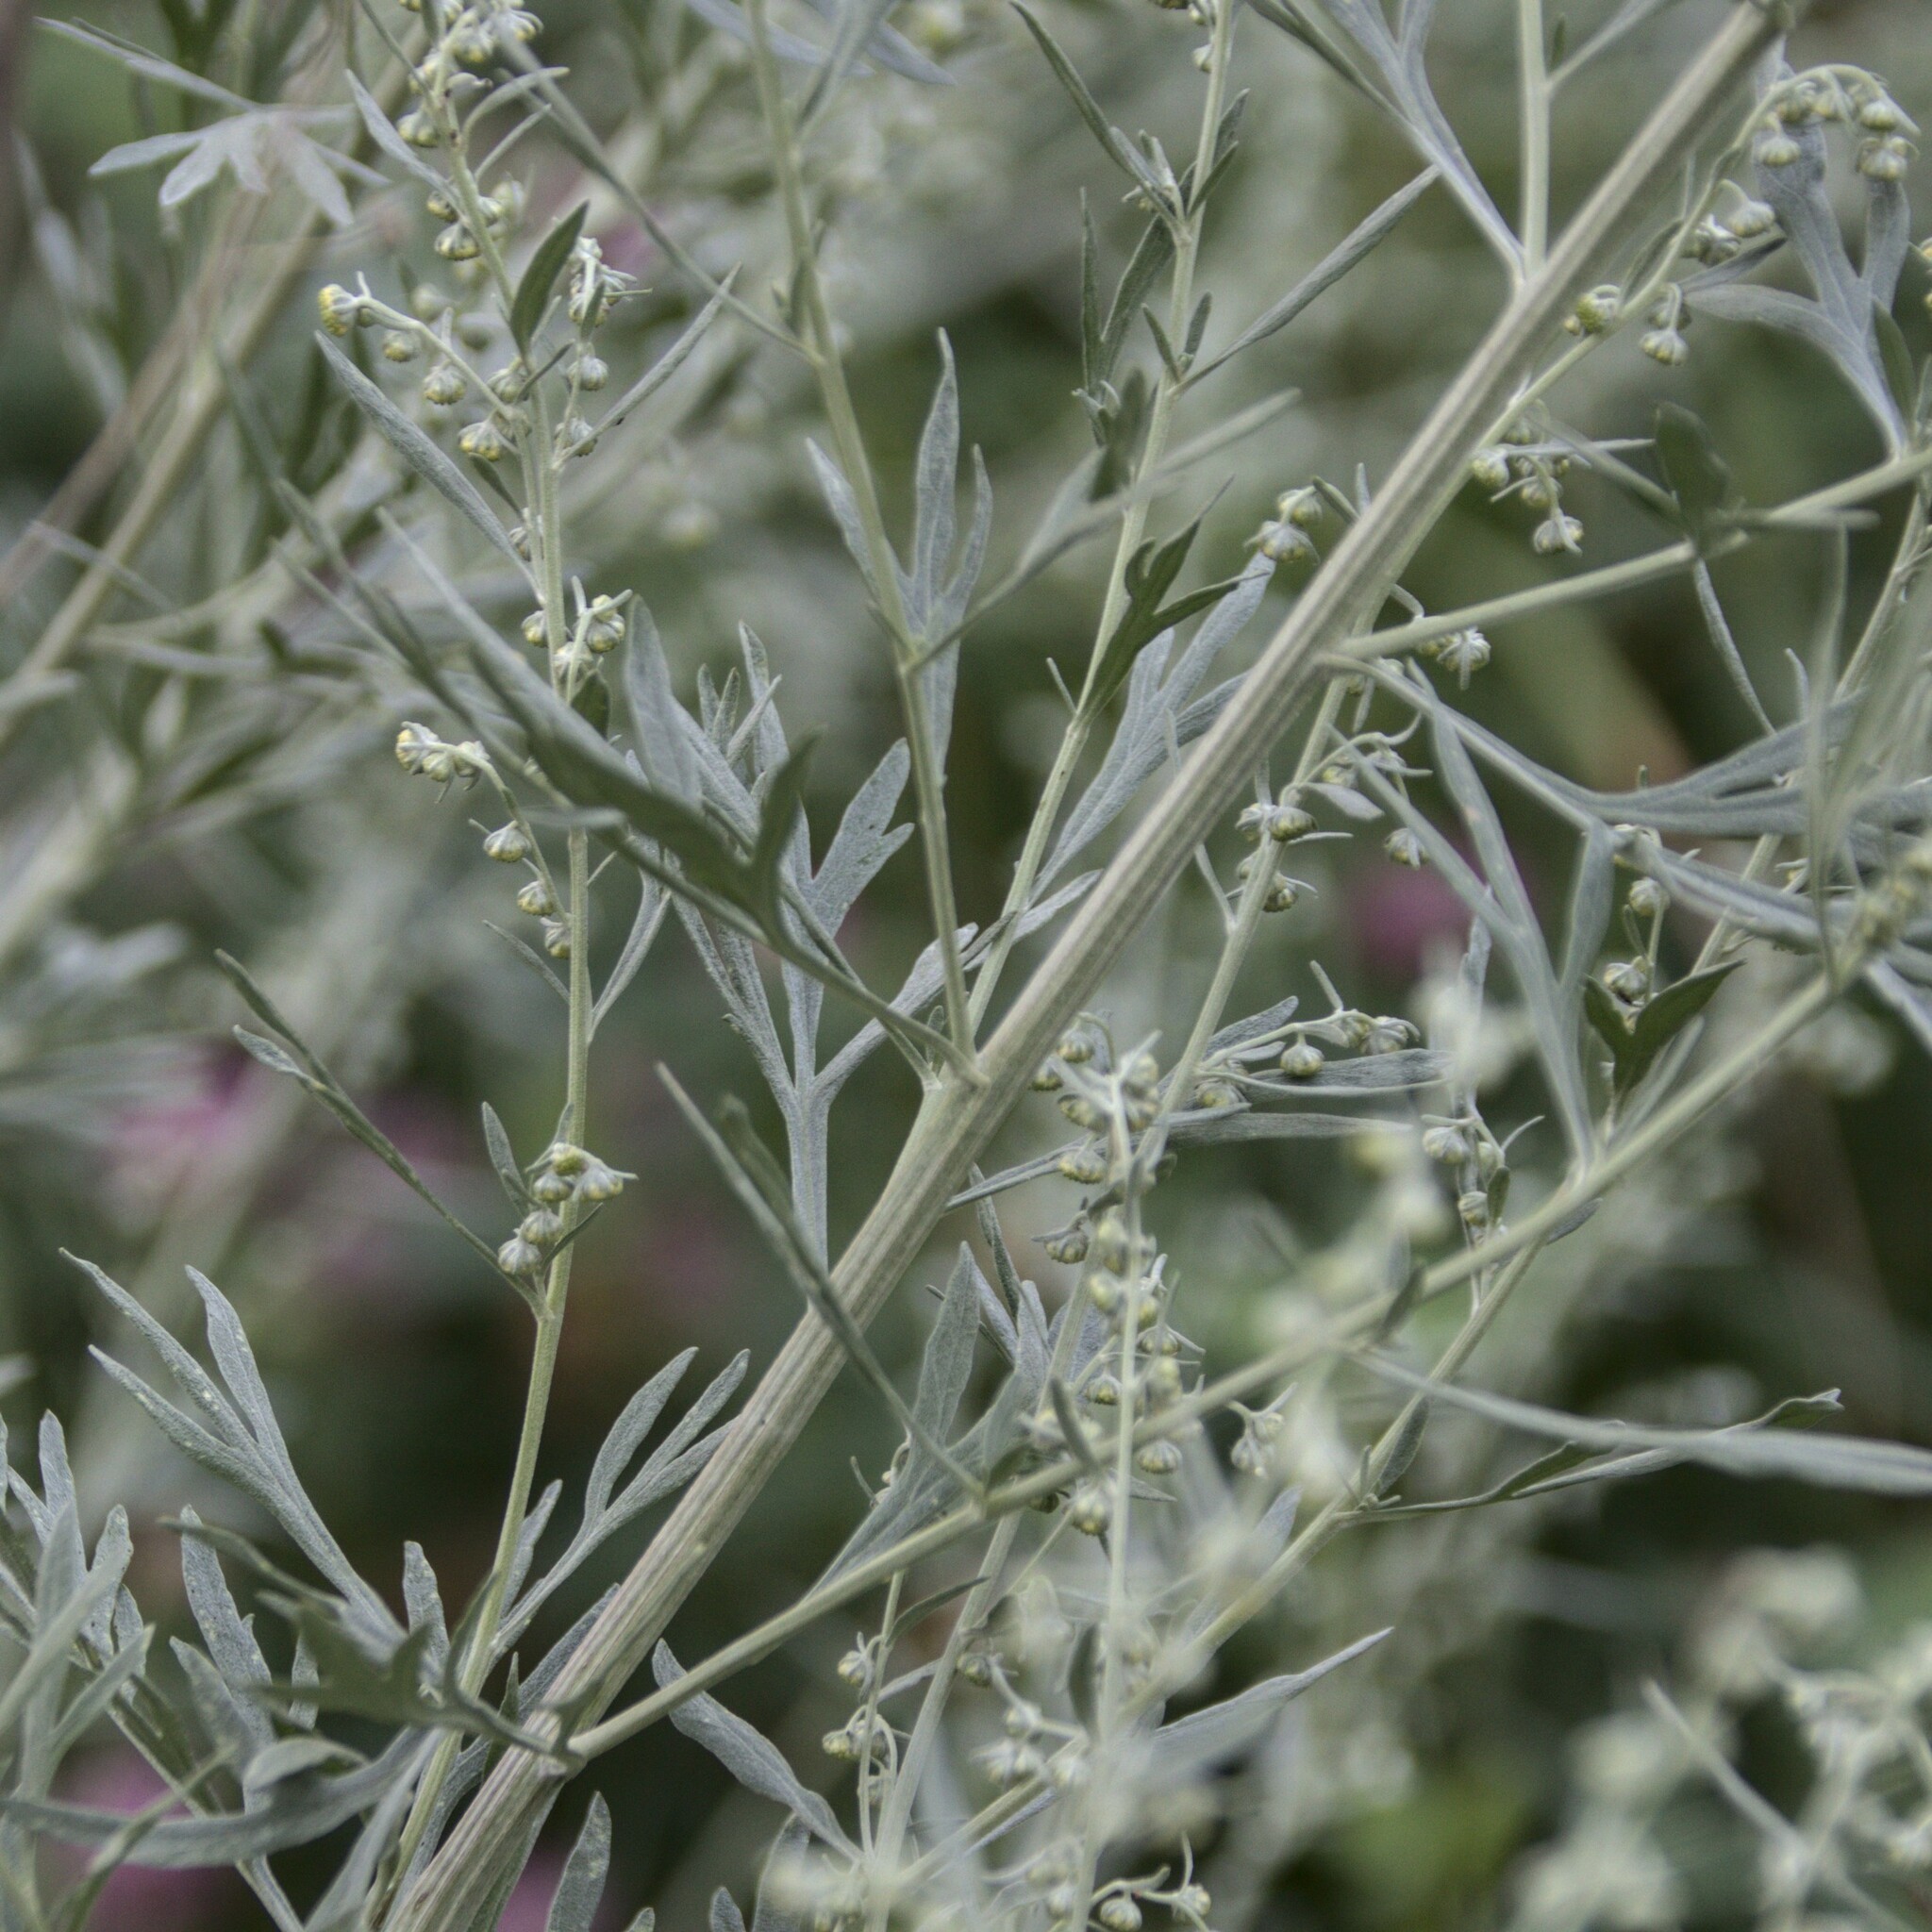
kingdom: Plantae
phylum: Tracheophyta
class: Magnoliopsida
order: Asterales
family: Asteraceae
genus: Artemisia
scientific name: Artemisia absinthium
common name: Wormwood
